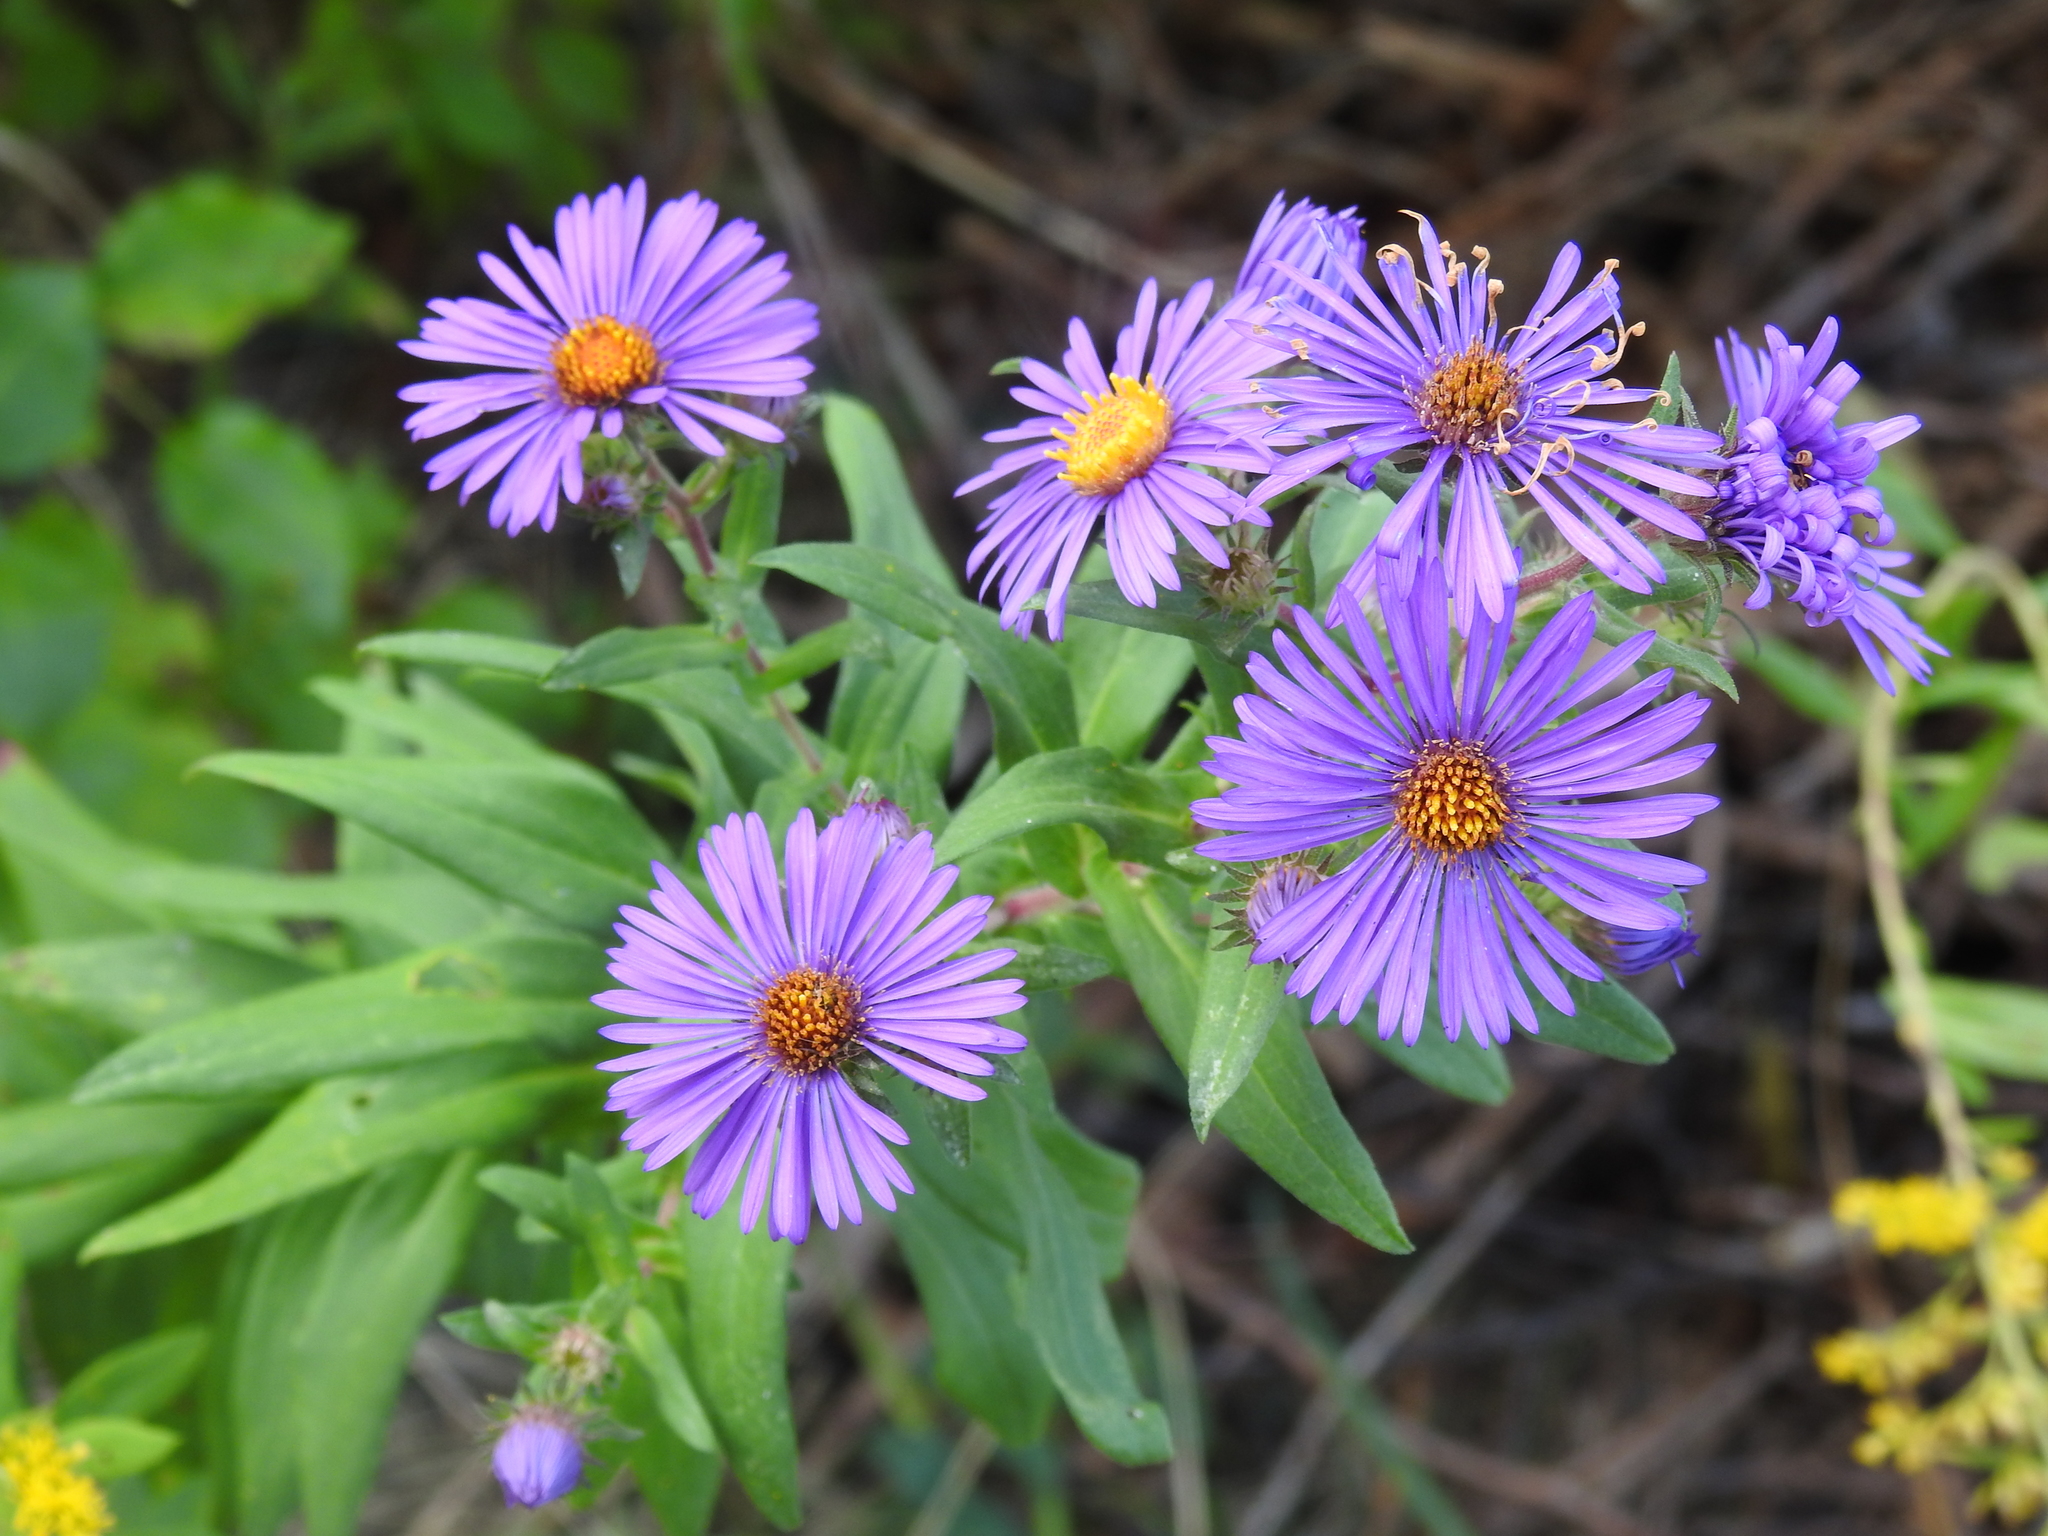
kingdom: Plantae
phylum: Tracheophyta
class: Magnoliopsida
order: Asterales
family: Asteraceae
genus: Symphyotrichum
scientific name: Symphyotrichum novae-angliae
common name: Michaelmas daisy
